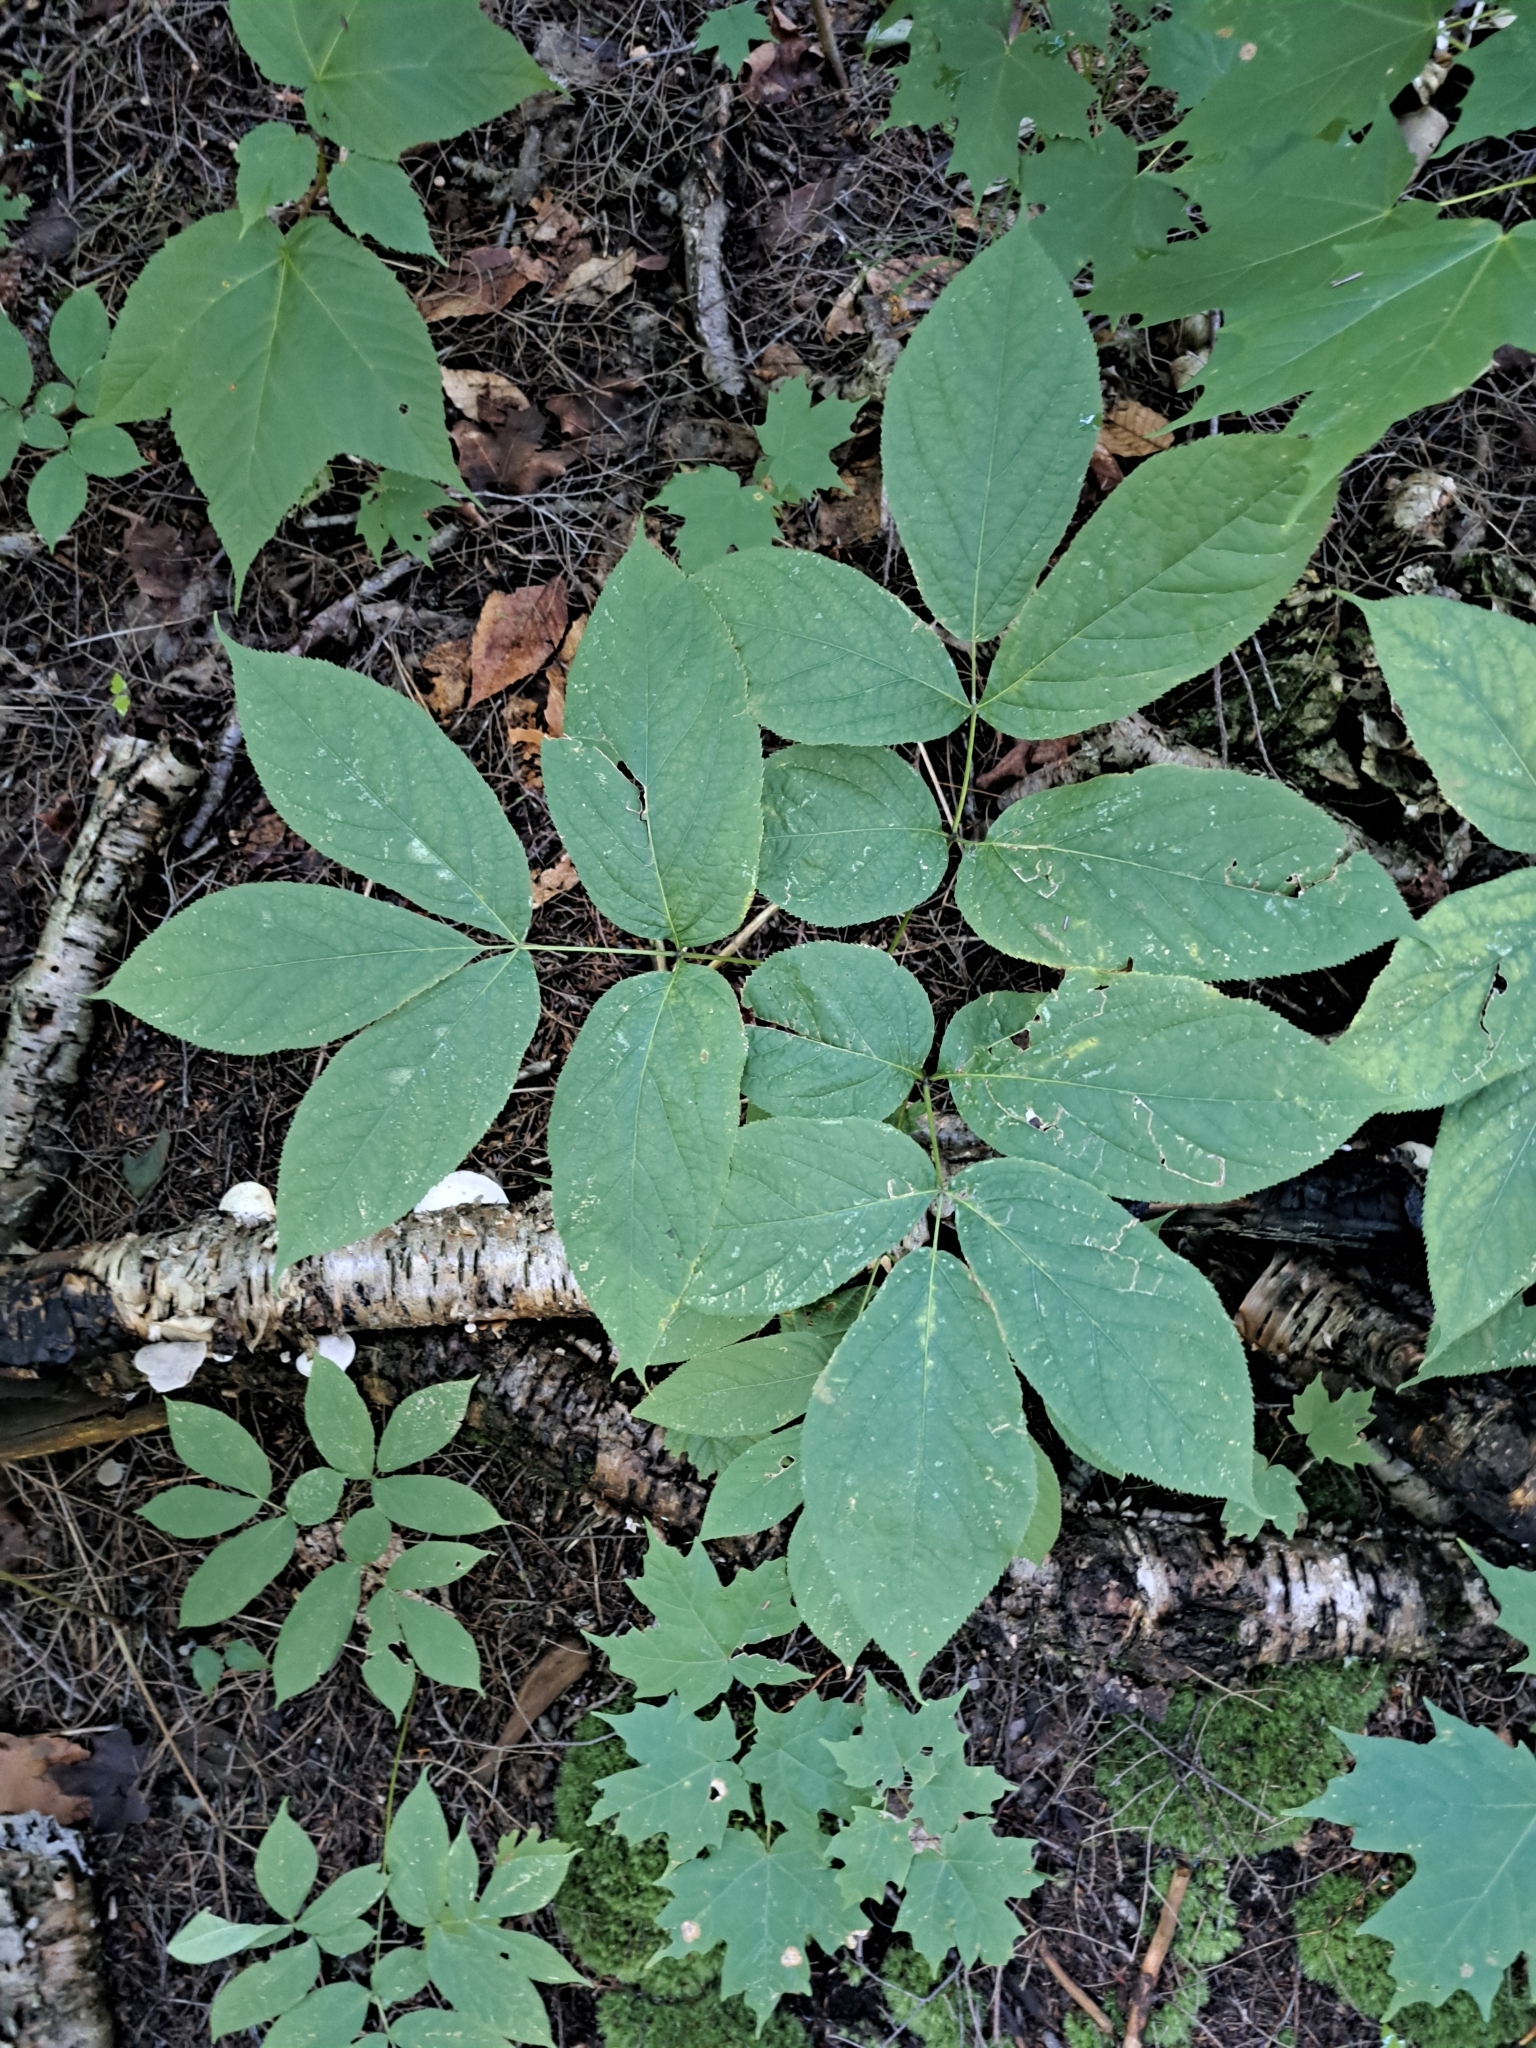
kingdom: Plantae
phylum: Tracheophyta
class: Magnoliopsida
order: Apiales
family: Araliaceae
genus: Aralia
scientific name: Aralia nudicaulis
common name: Wild sarsaparilla
